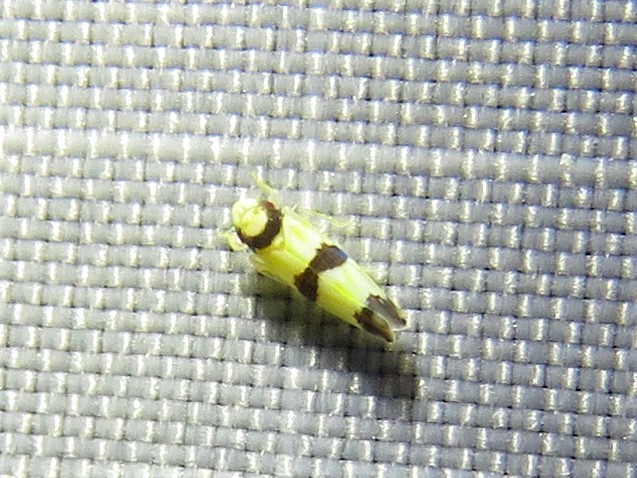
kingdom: Animalia
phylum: Arthropoda
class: Insecta
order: Hemiptera
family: Cicadellidae
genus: Erythroneura
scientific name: Erythroneura calycula
